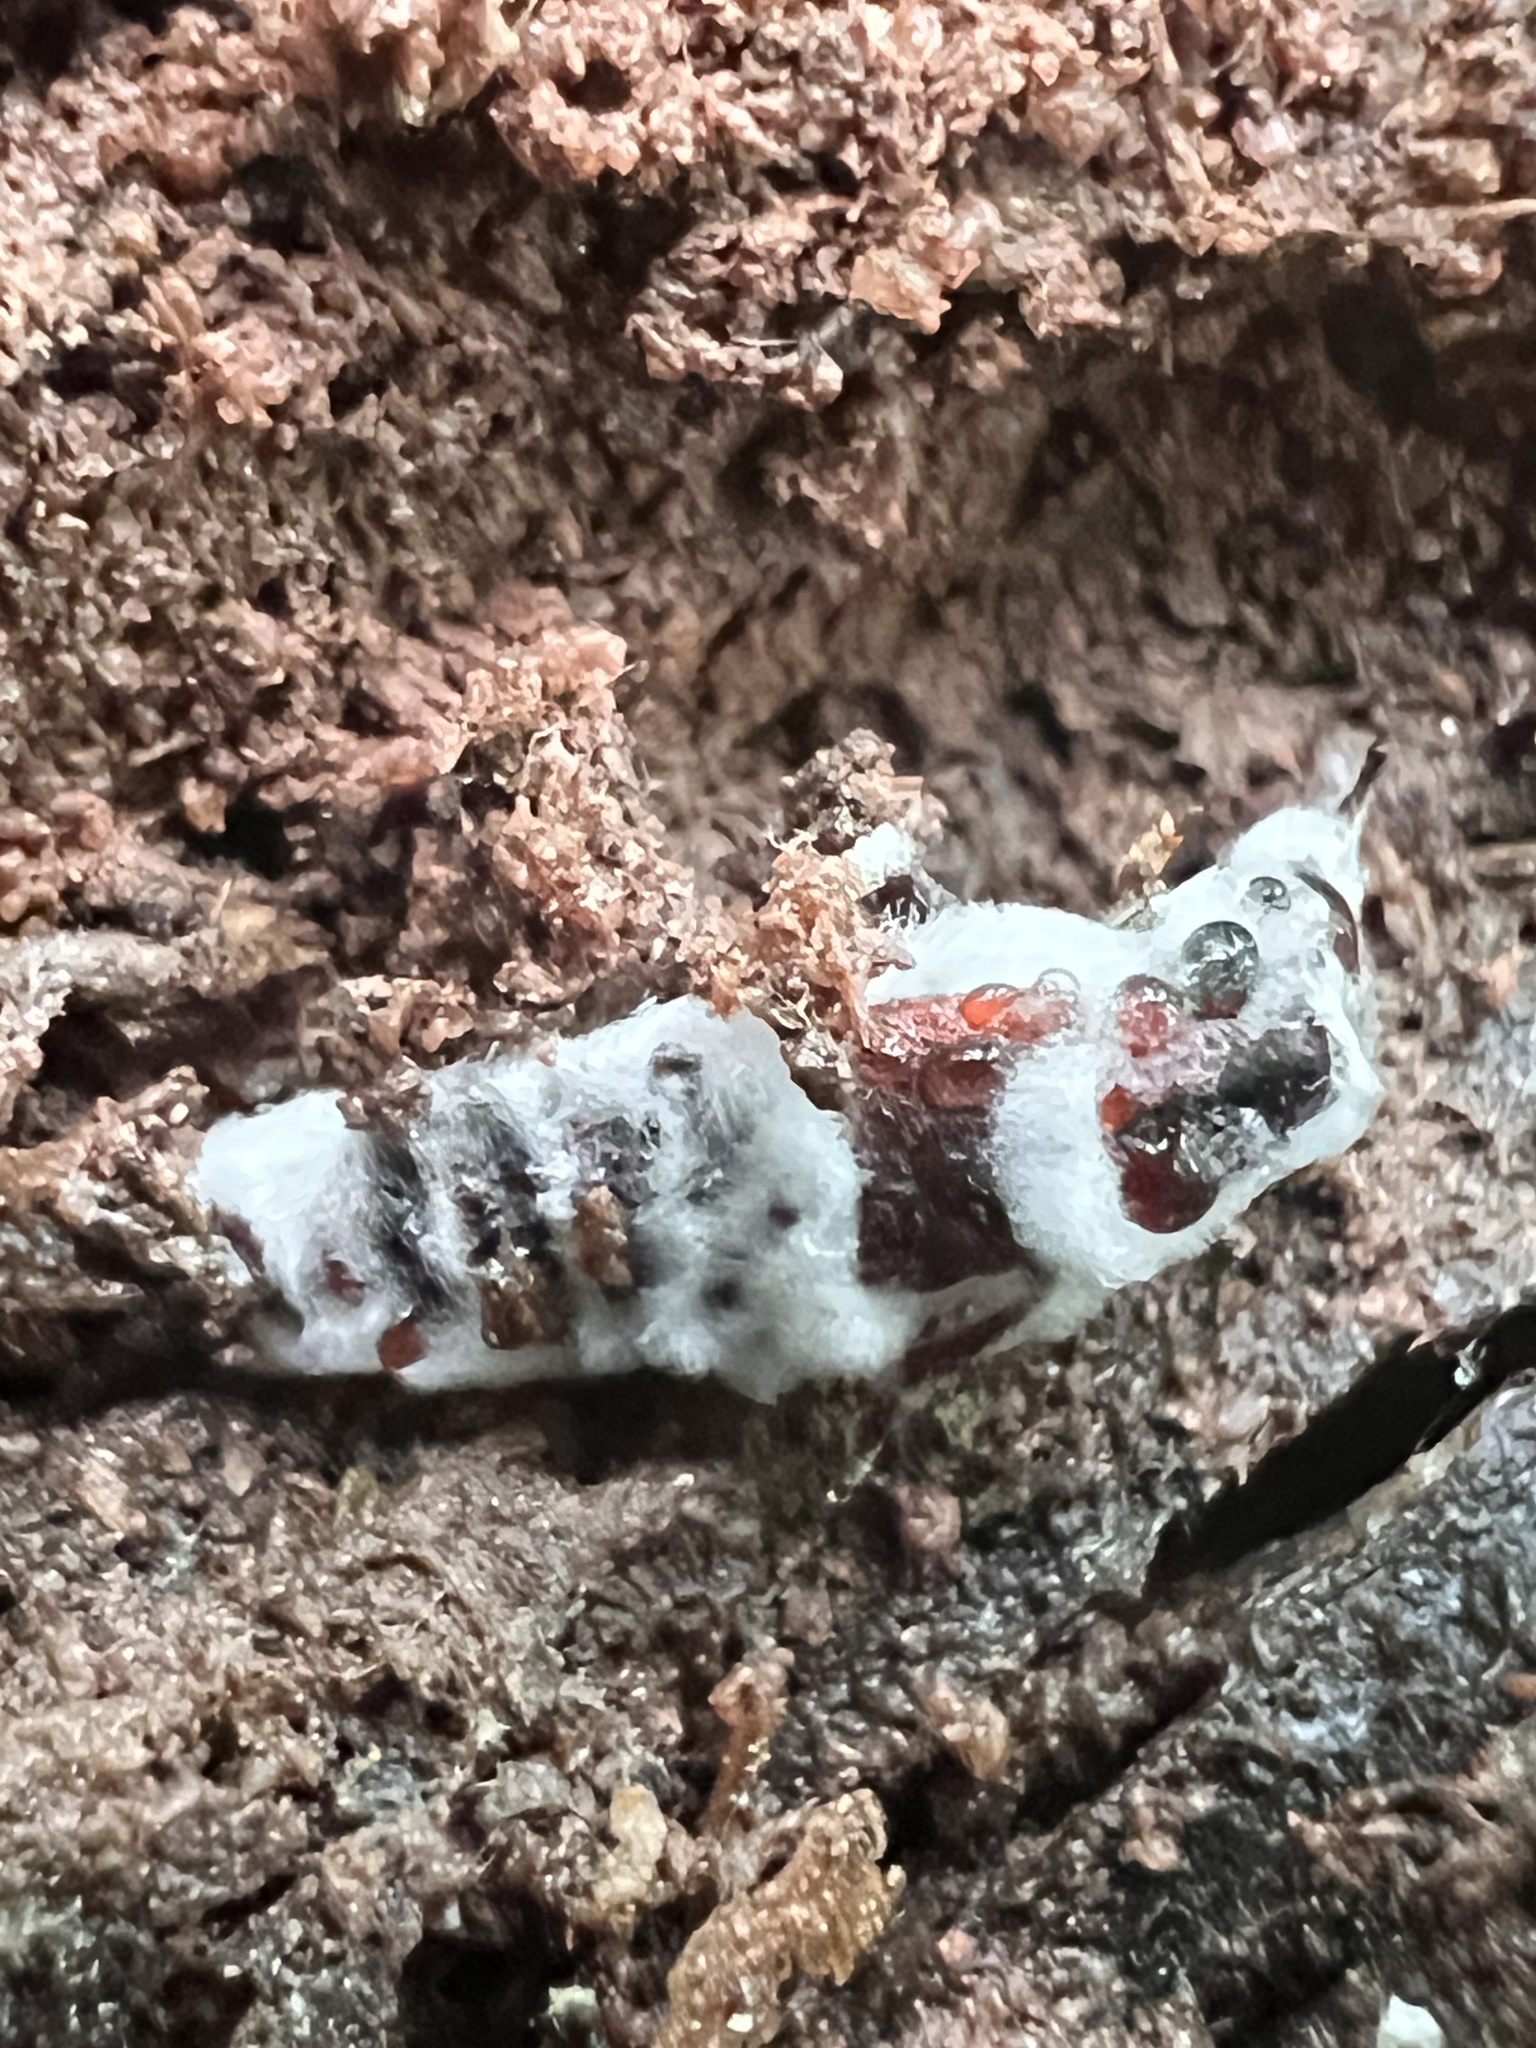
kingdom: Fungi
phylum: Ascomycota
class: Sordariomycetes
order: Hypocreales
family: Cordycipitaceae
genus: Beauveria
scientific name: Beauveria bassiana
